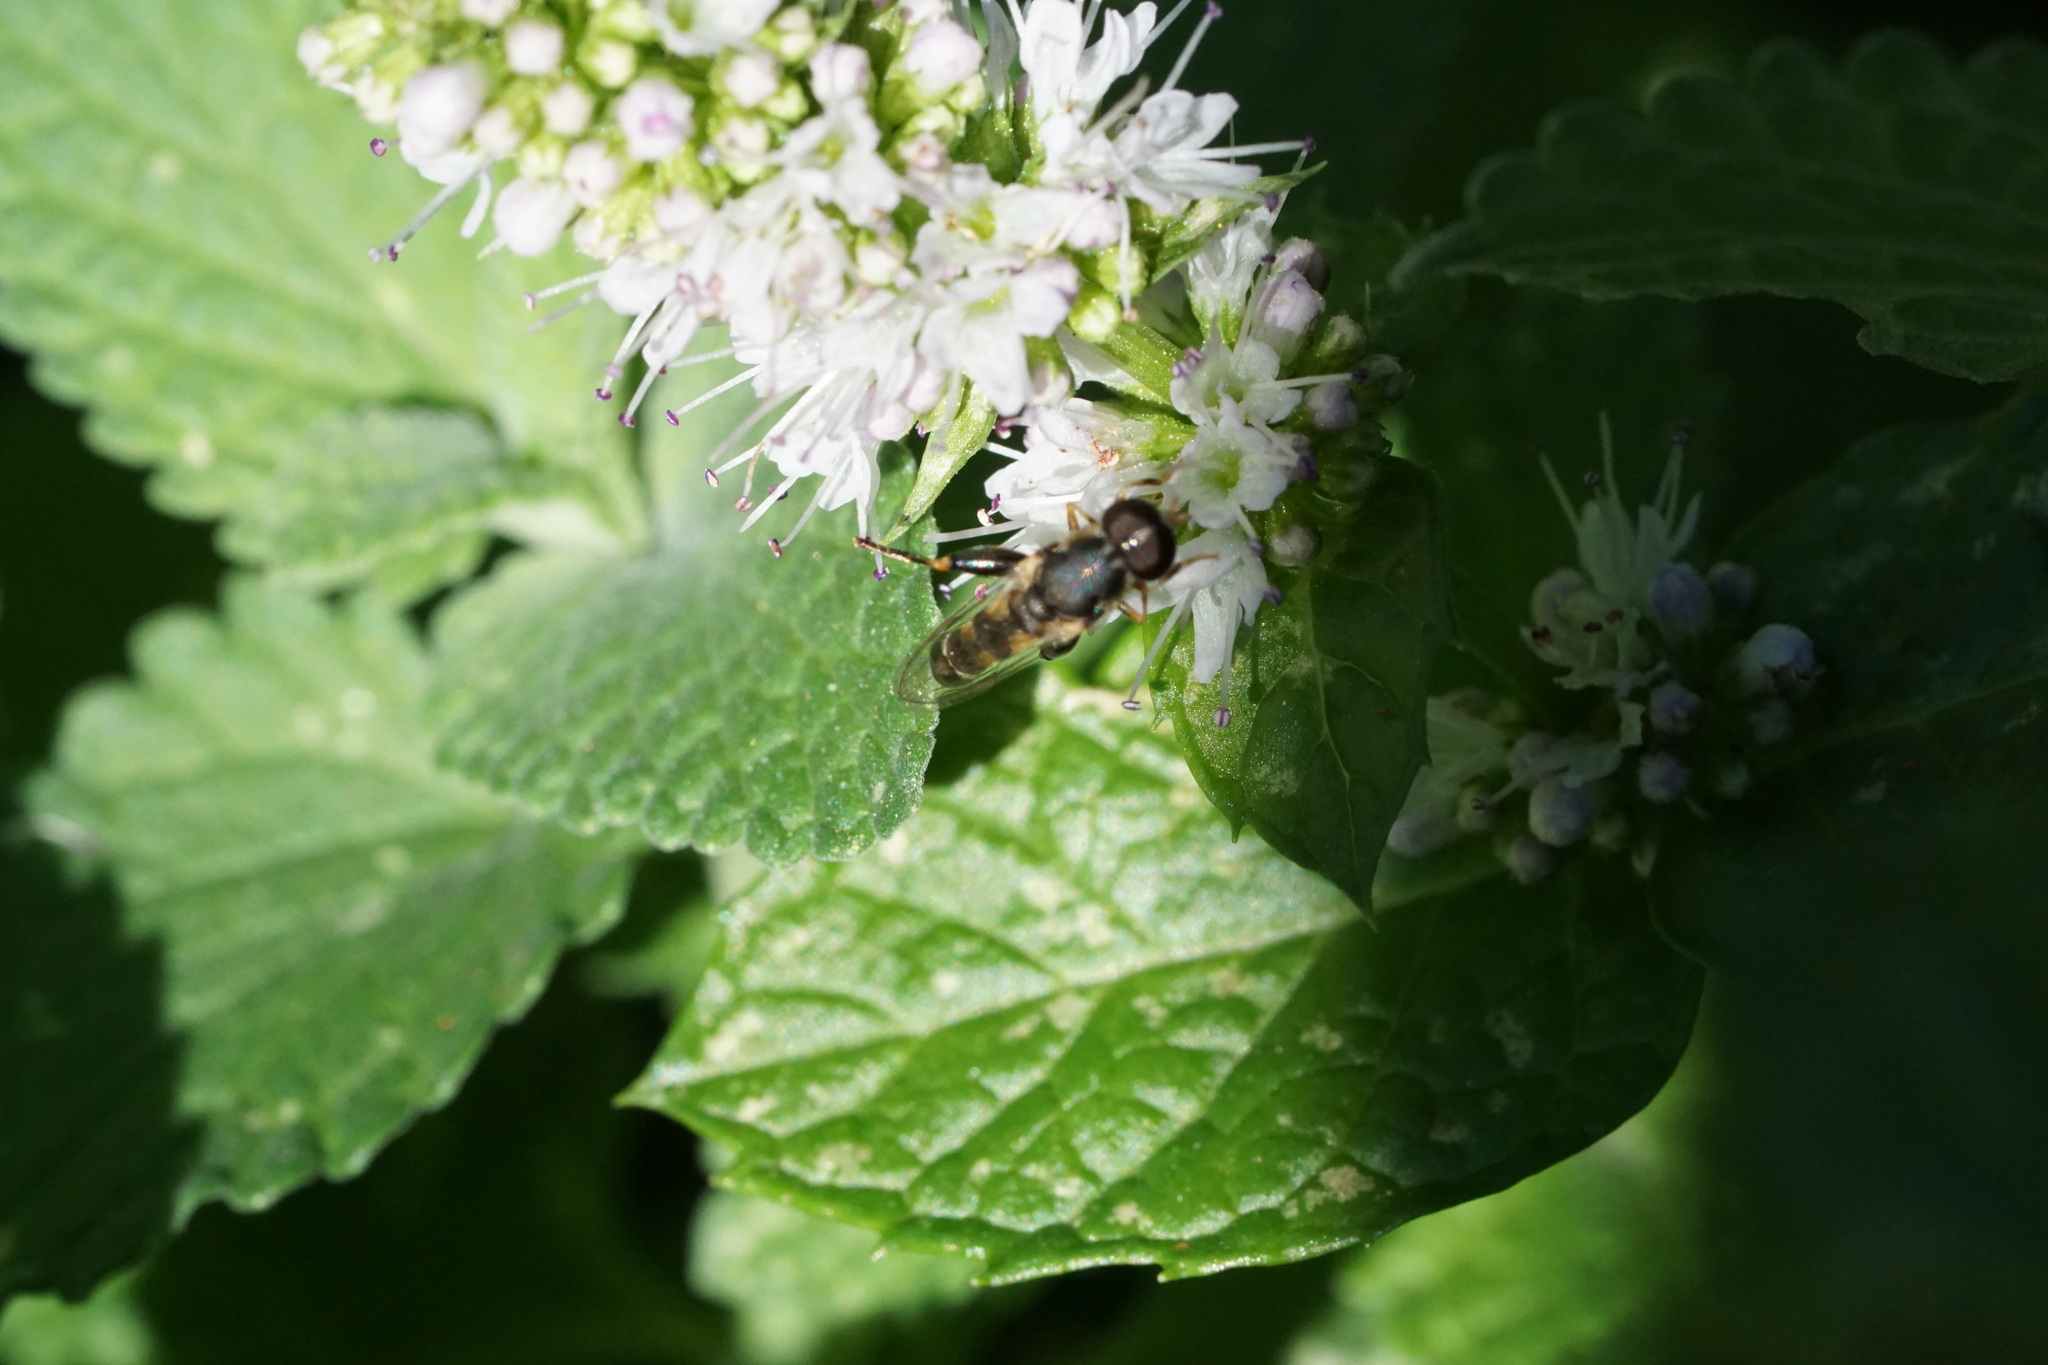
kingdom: Animalia
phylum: Arthropoda
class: Insecta
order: Diptera
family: Syrphidae
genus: Syritta
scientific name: Syritta pipiens
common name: Hover fly
